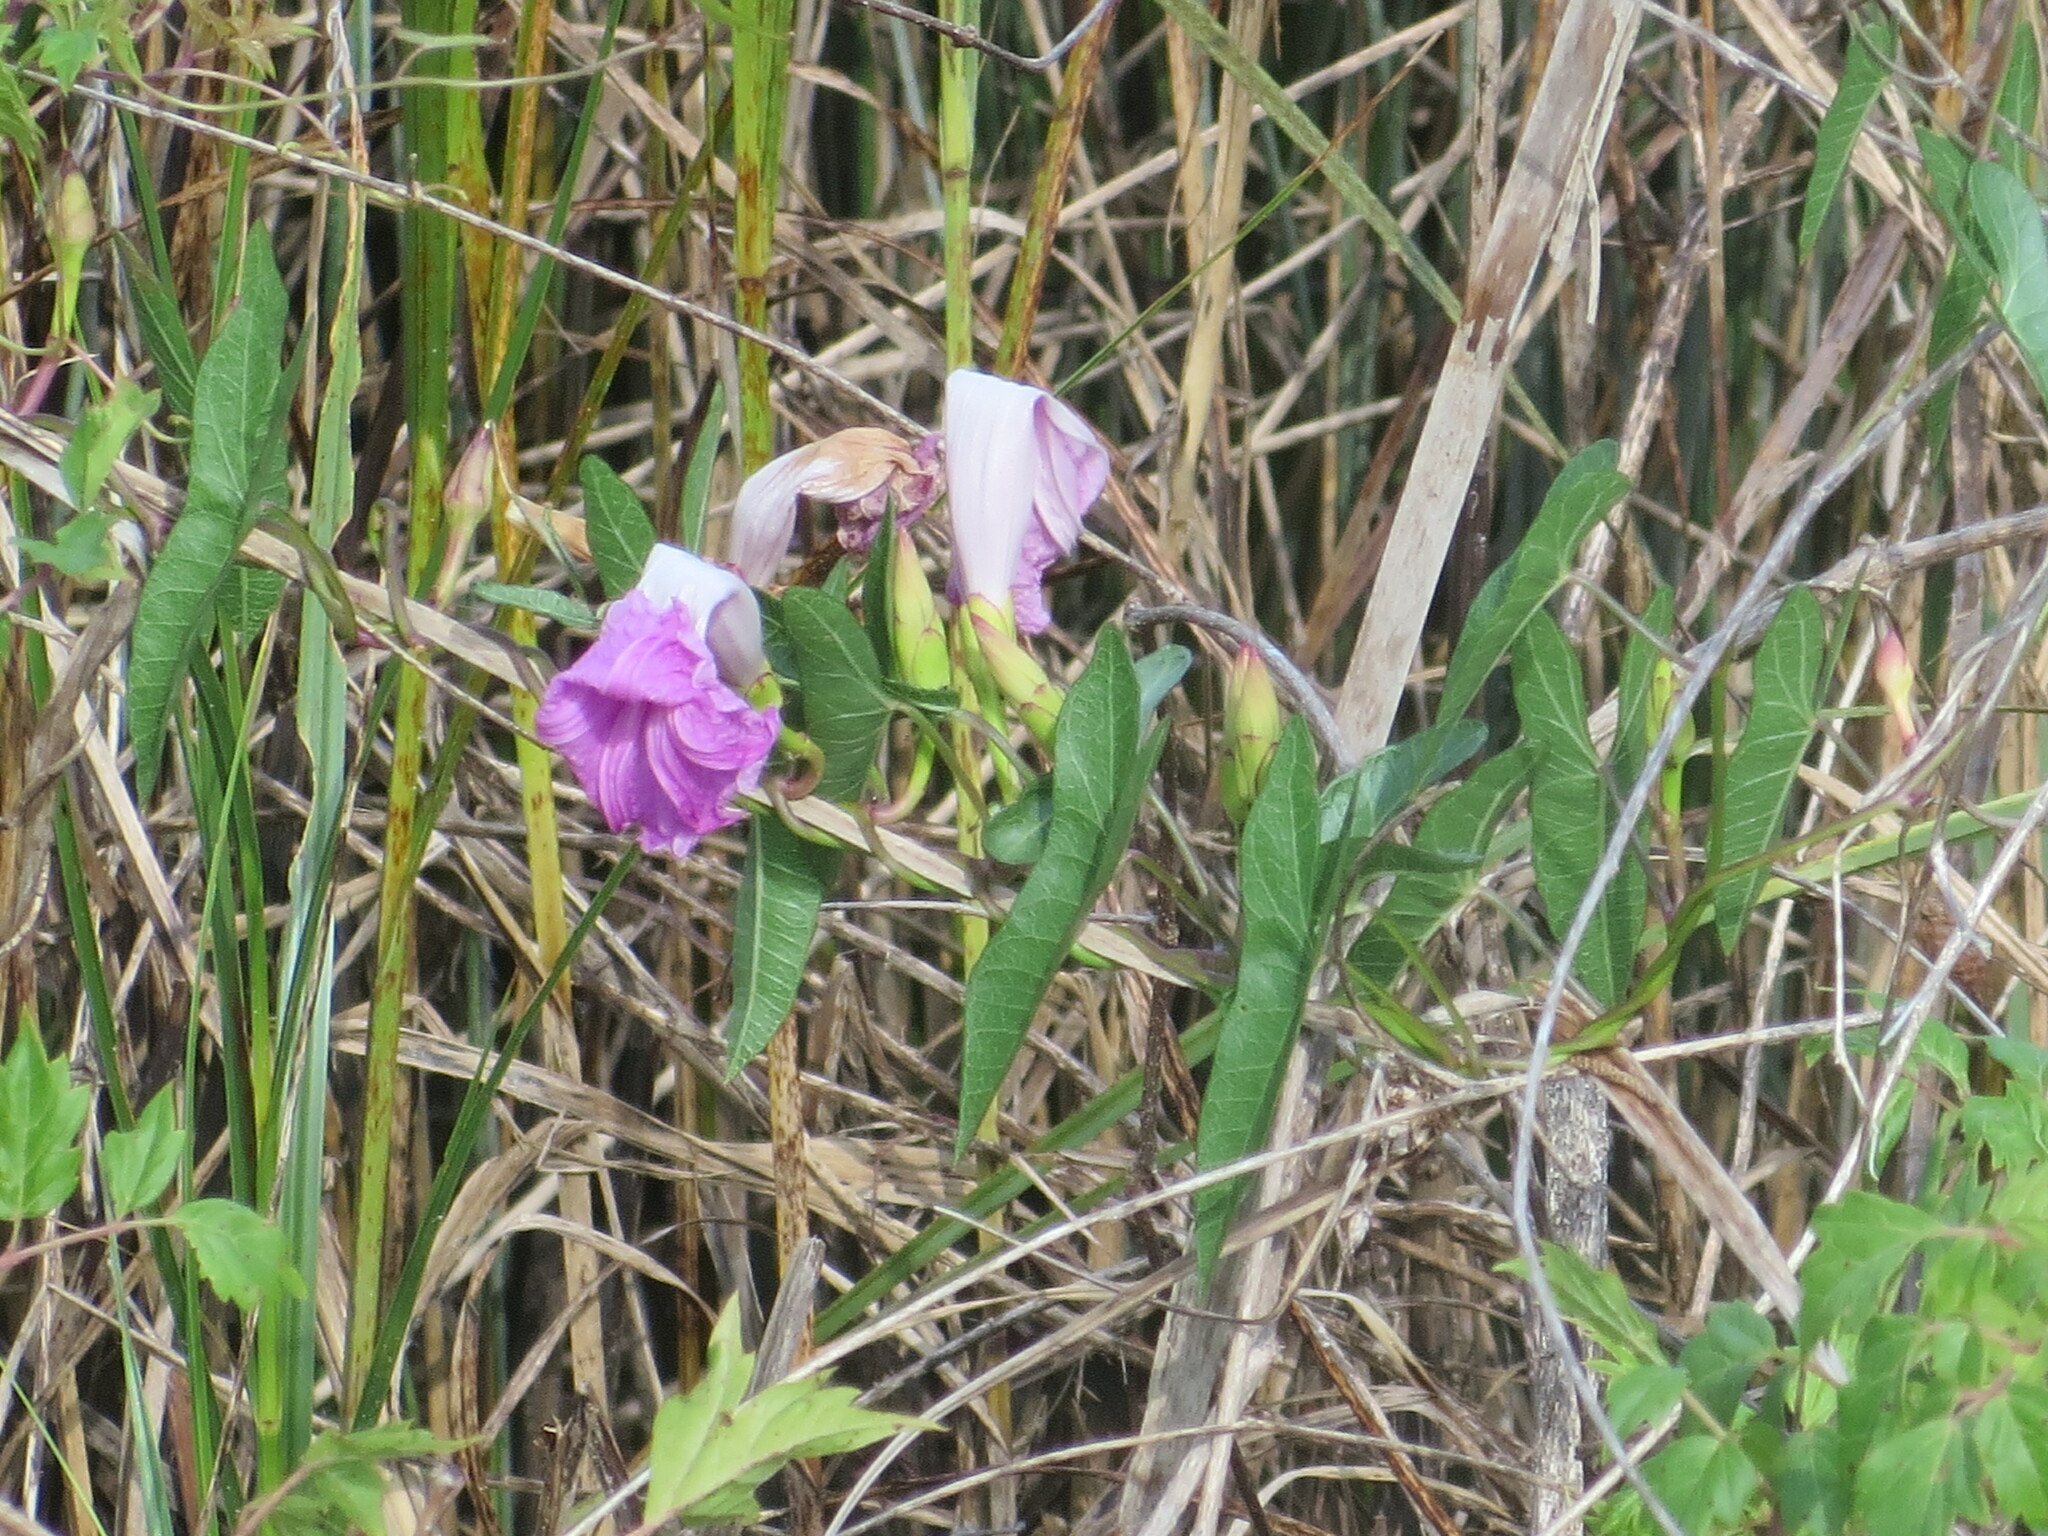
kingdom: Plantae
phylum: Tracheophyta
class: Magnoliopsida
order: Solanales
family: Convolvulaceae
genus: Ipomoea
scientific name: Ipomoea sagittata
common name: Saltmarsh morning glory
